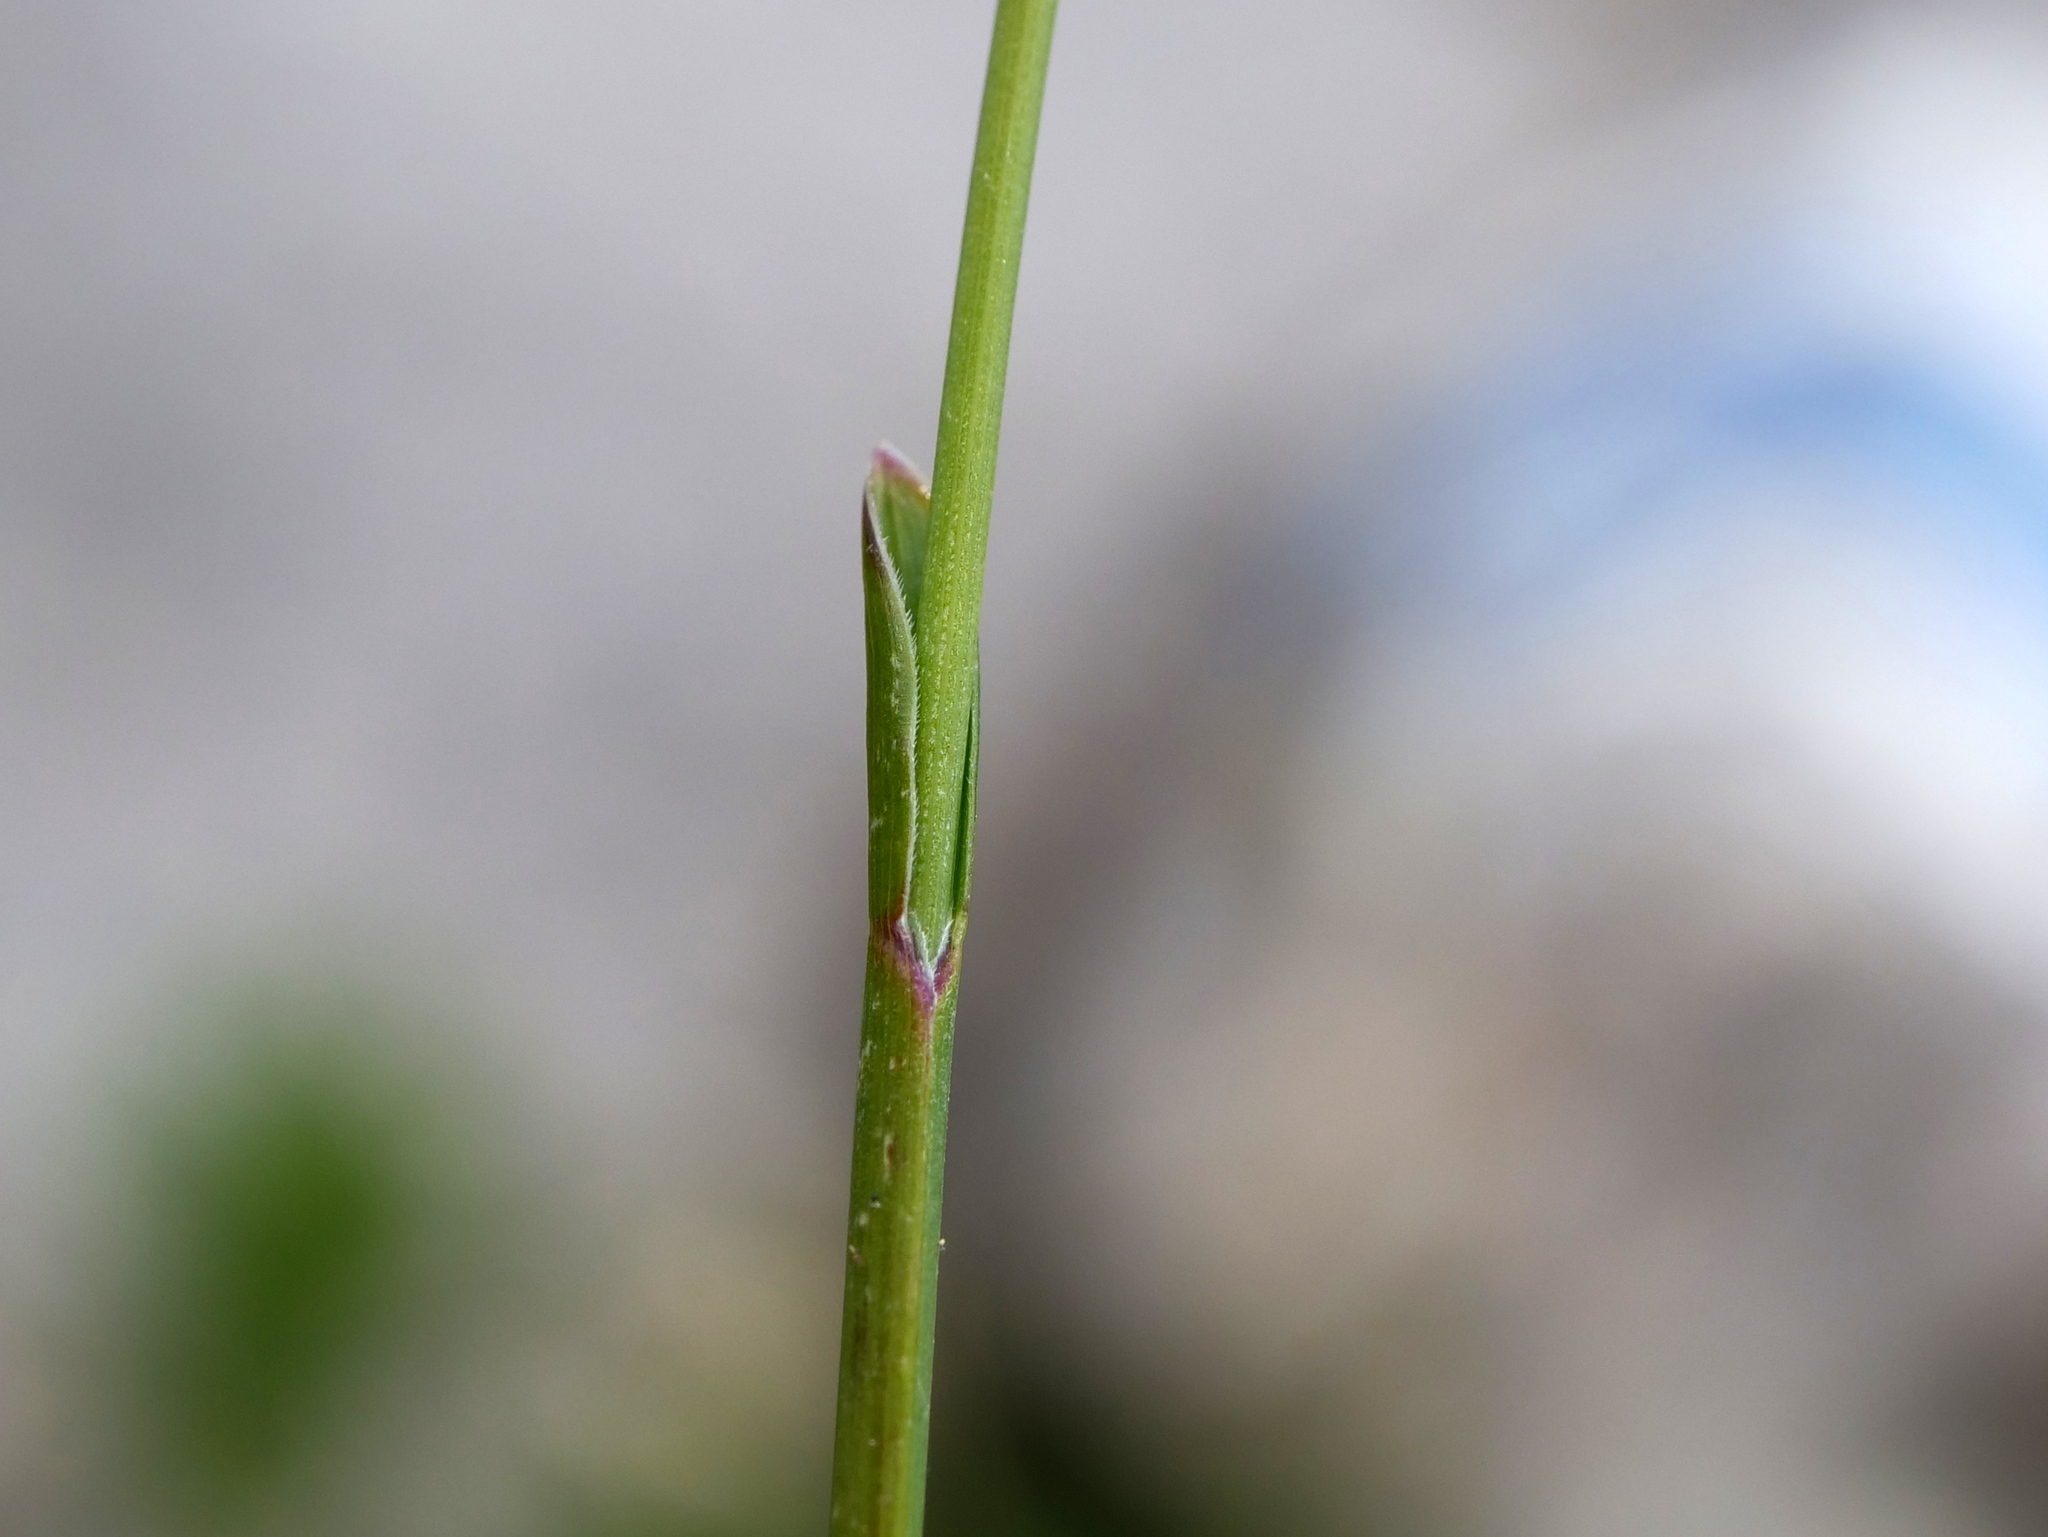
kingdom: Plantae
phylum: Tracheophyta
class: Liliopsida
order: Poales
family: Poaceae
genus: Sesleria
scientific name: Sesleria caerulea
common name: Blue moor-grass
